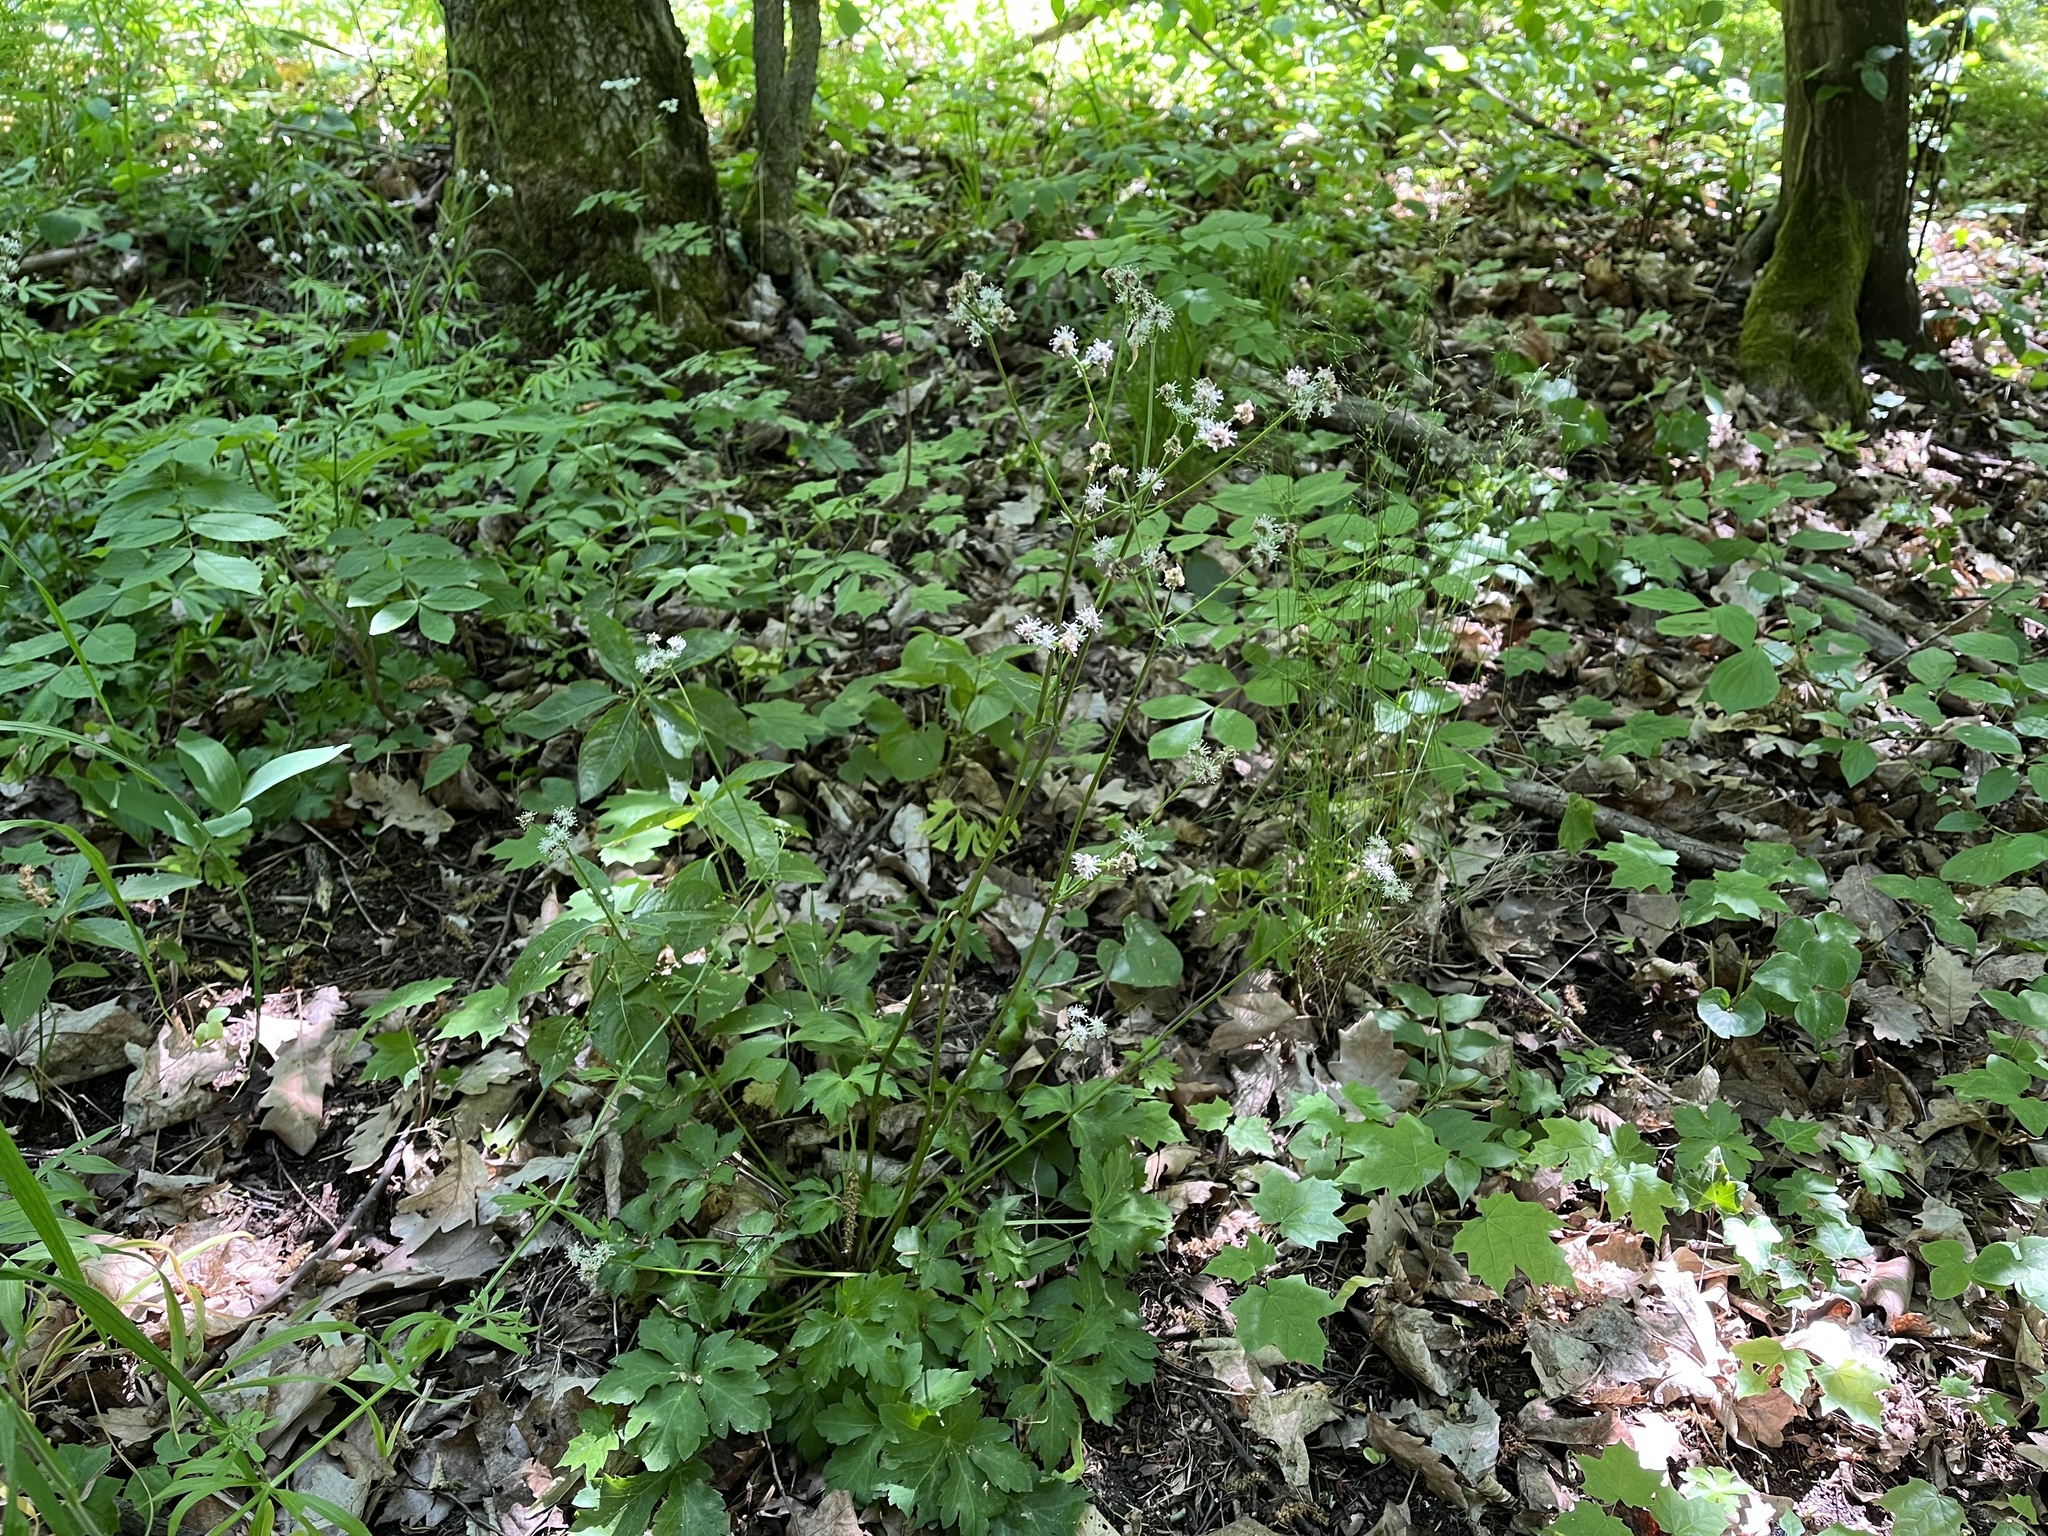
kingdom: Plantae
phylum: Tracheophyta
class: Magnoliopsida
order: Apiales
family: Apiaceae
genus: Sanicula
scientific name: Sanicula europaea
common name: Sanicle
